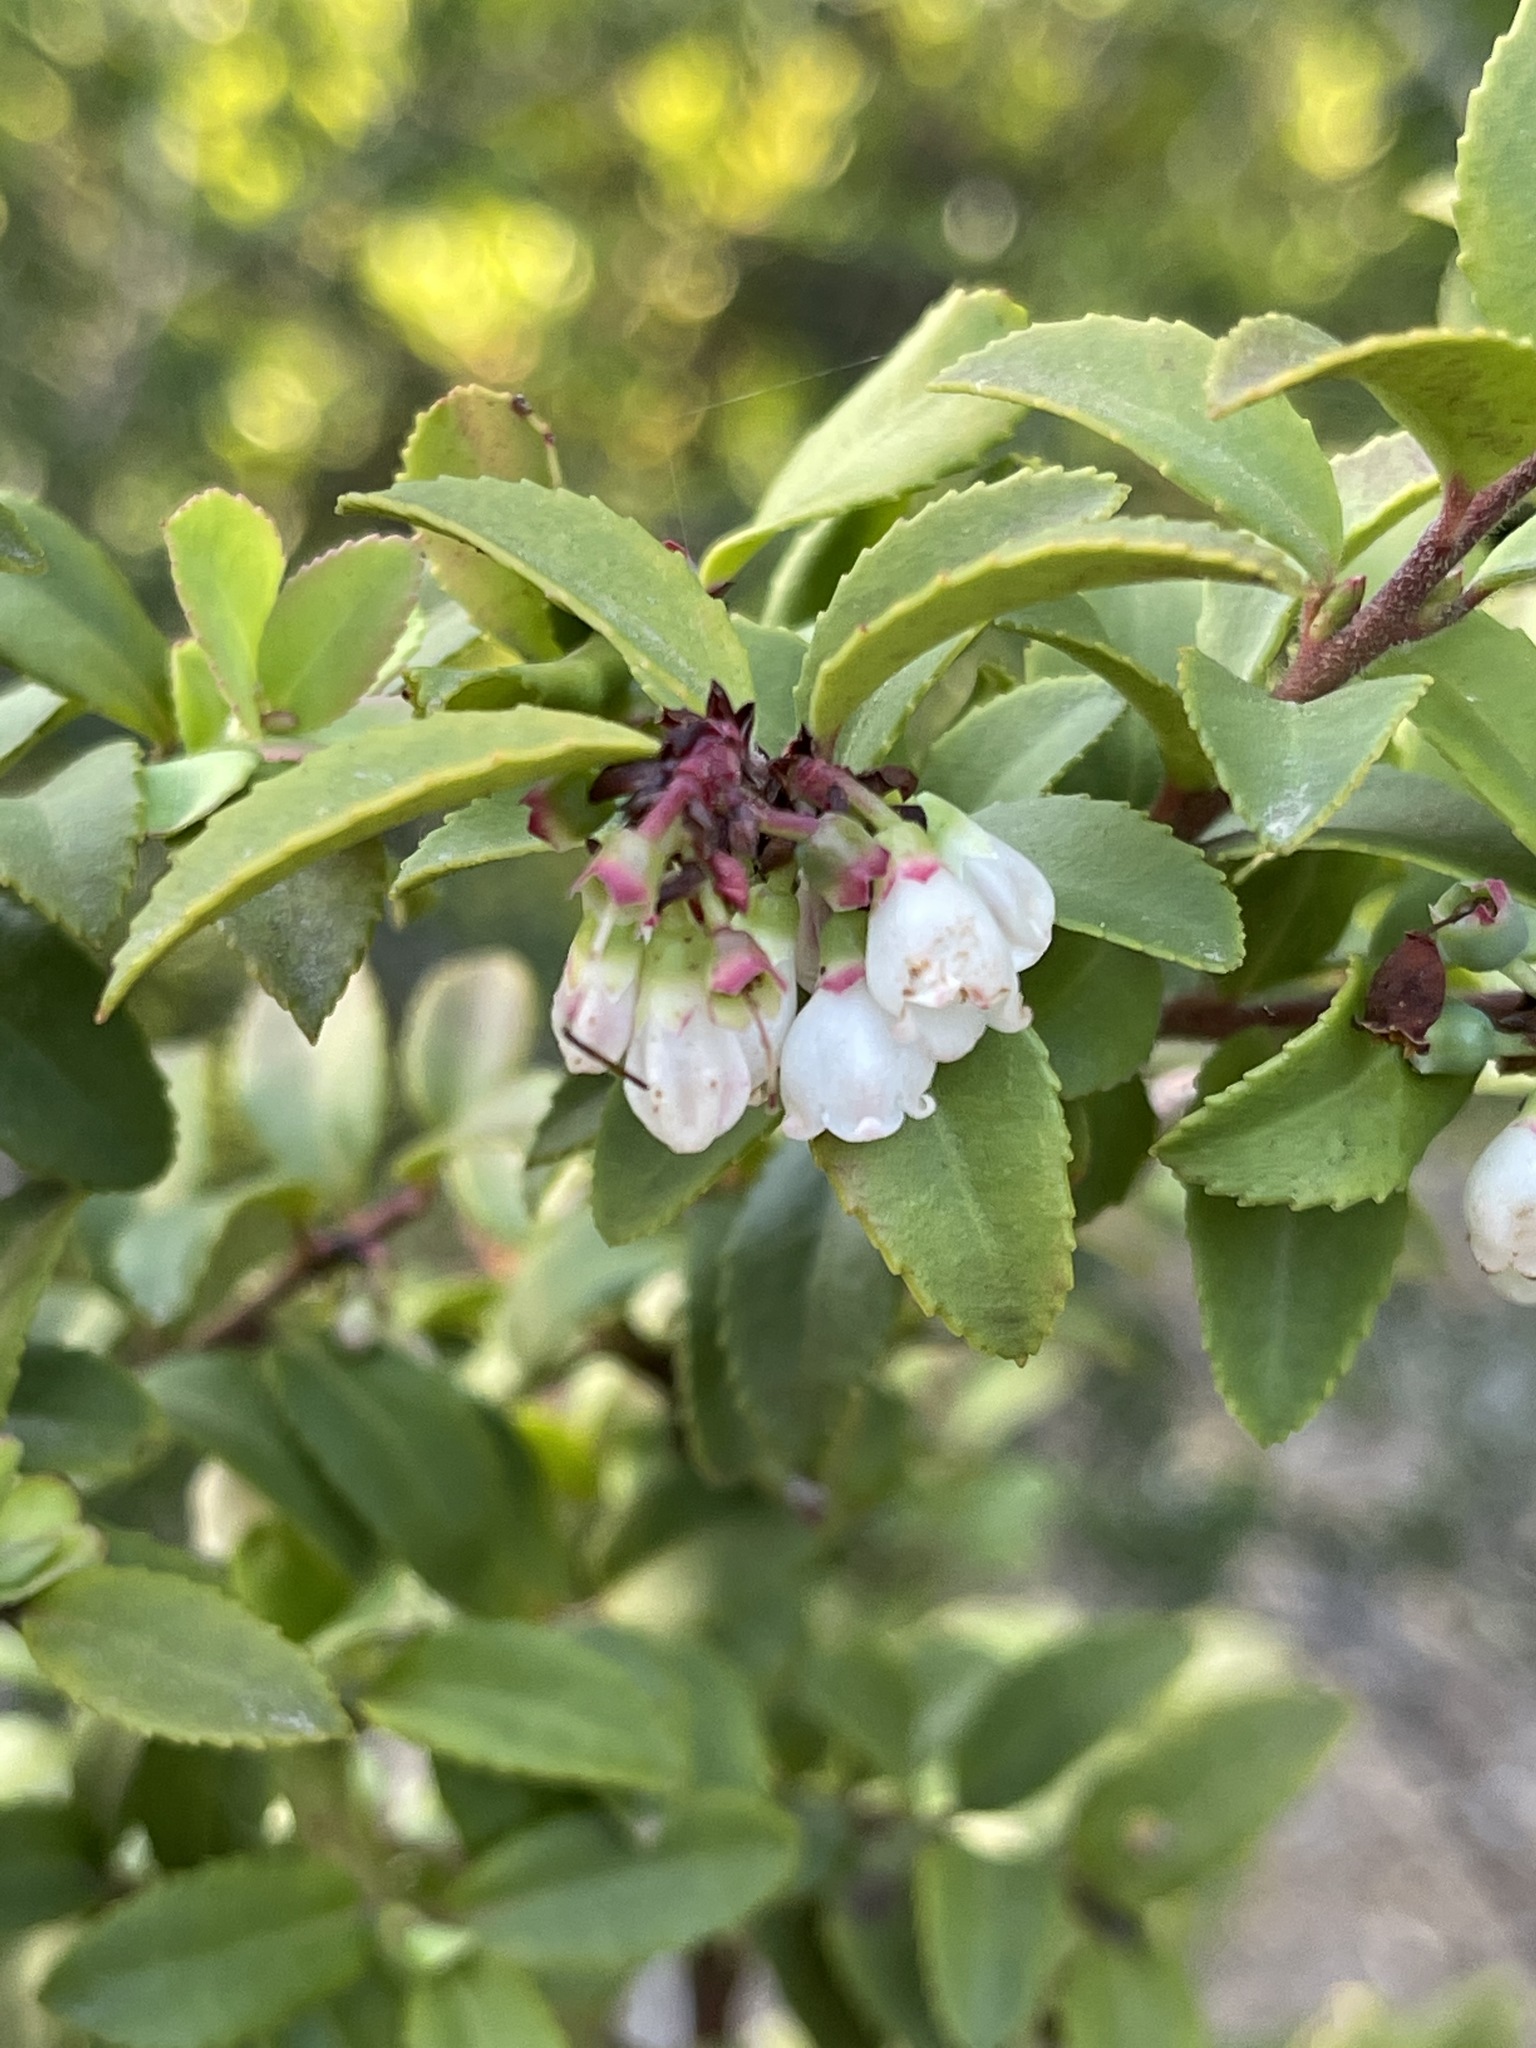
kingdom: Plantae
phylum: Tracheophyta
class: Magnoliopsida
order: Ericales
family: Ericaceae
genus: Vaccinium
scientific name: Vaccinium ovatum
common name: California-huckleberry
